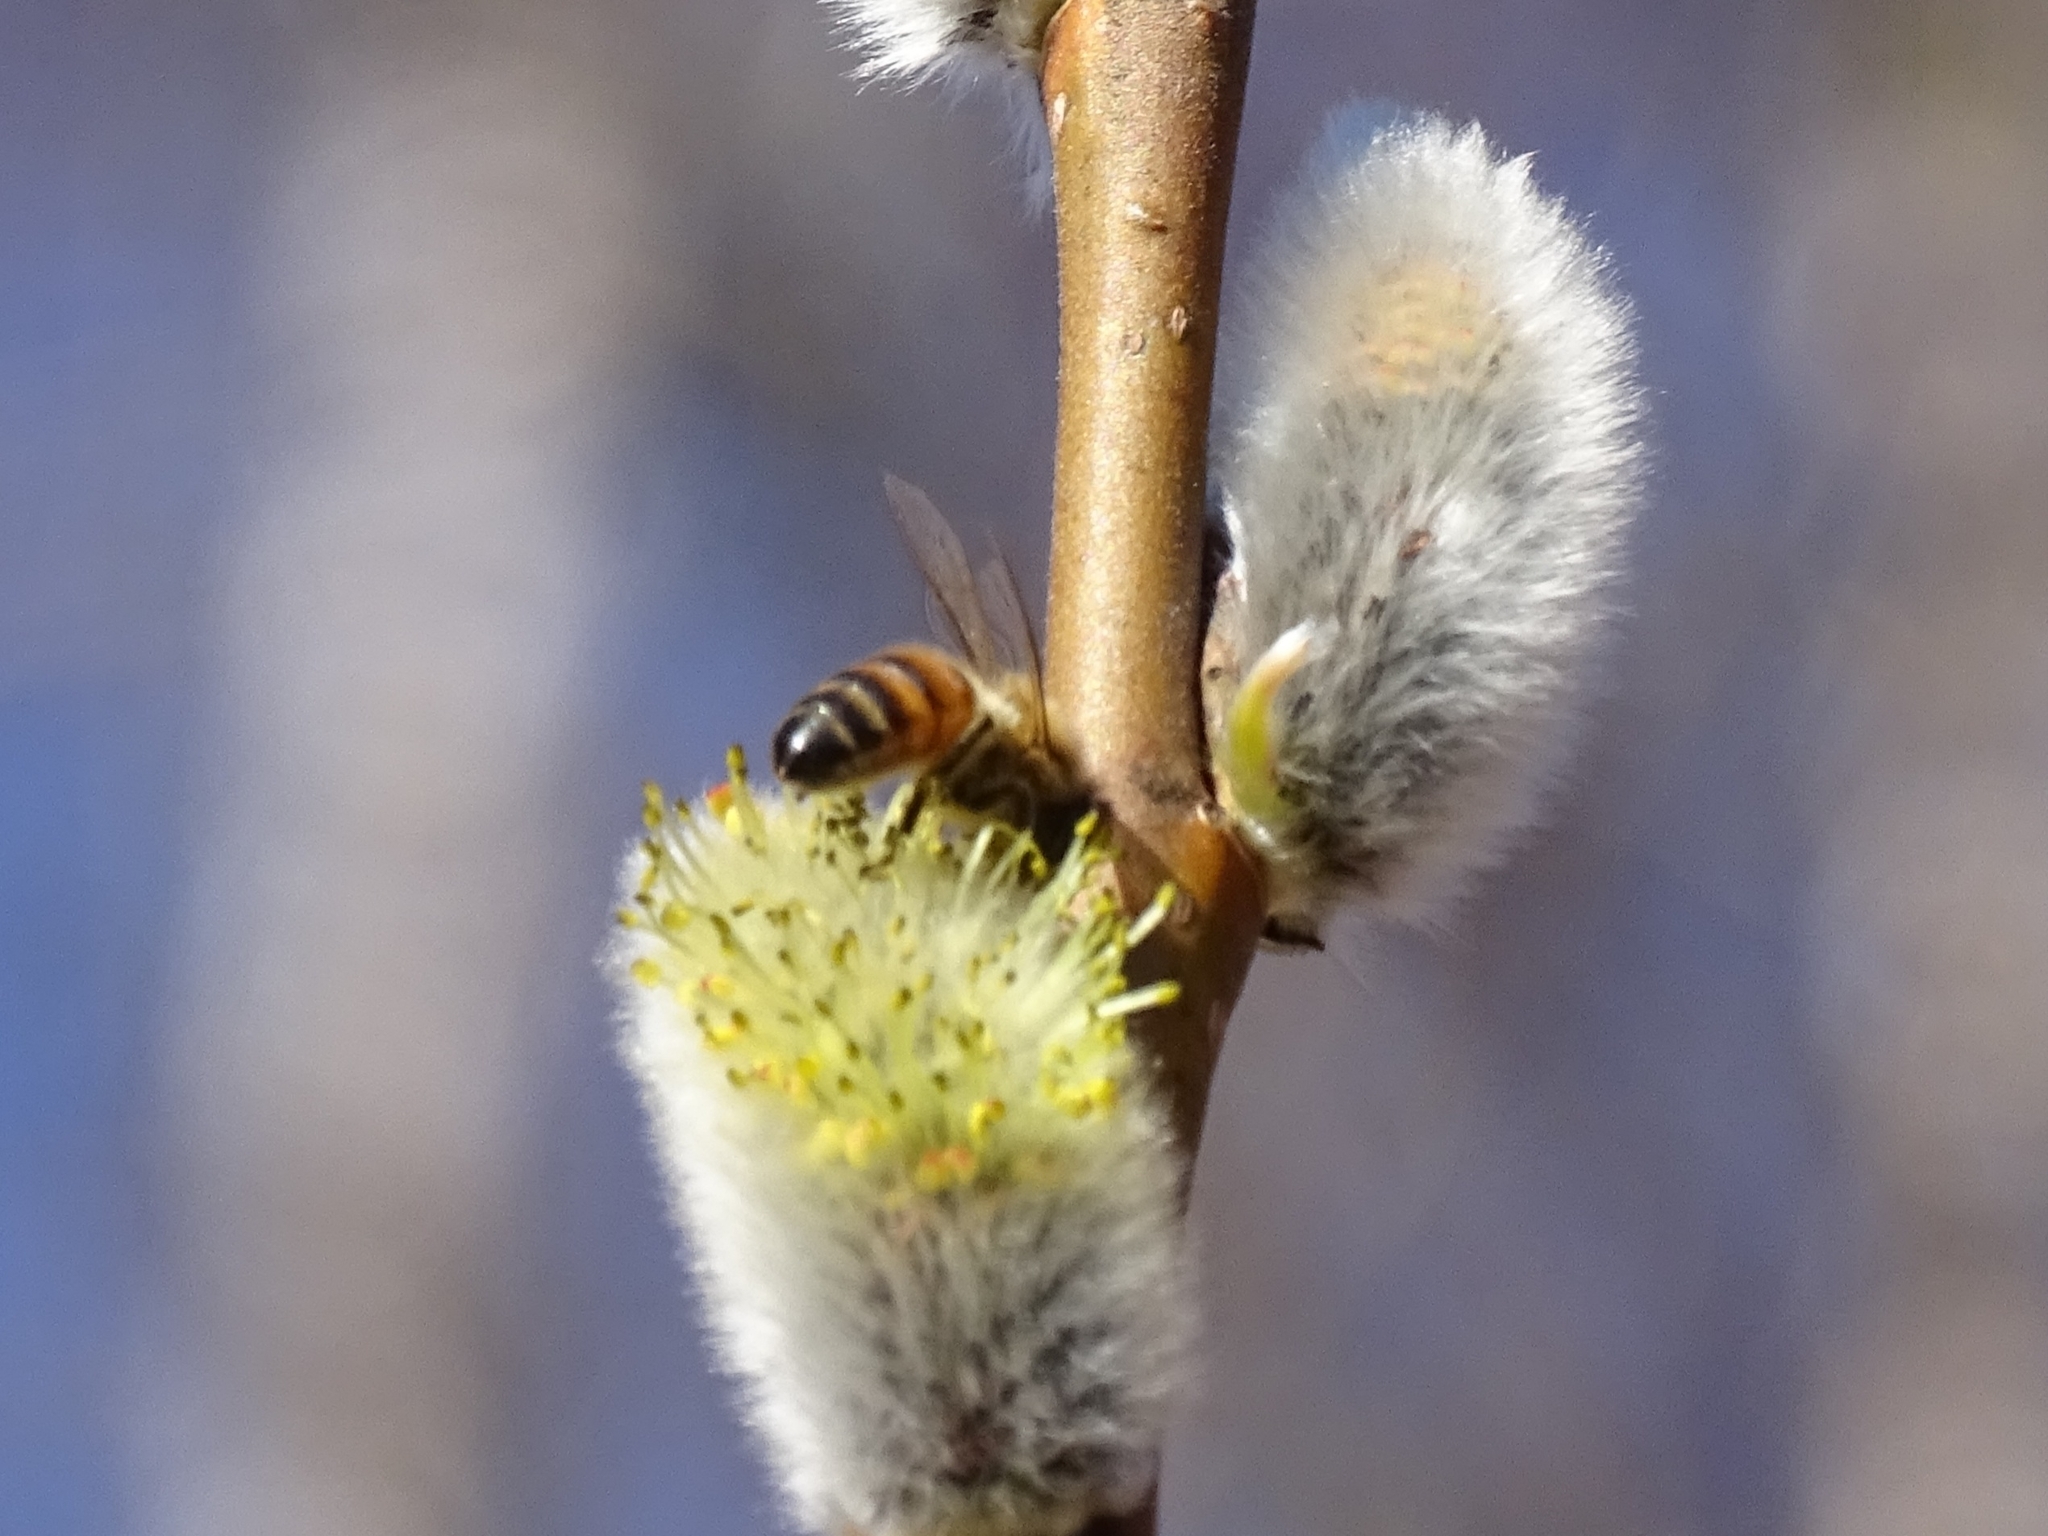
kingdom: Animalia
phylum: Arthropoda
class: Insecta
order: Hymenoptera
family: Apidae
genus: Apis
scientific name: Apis mellifera
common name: Honey bee
